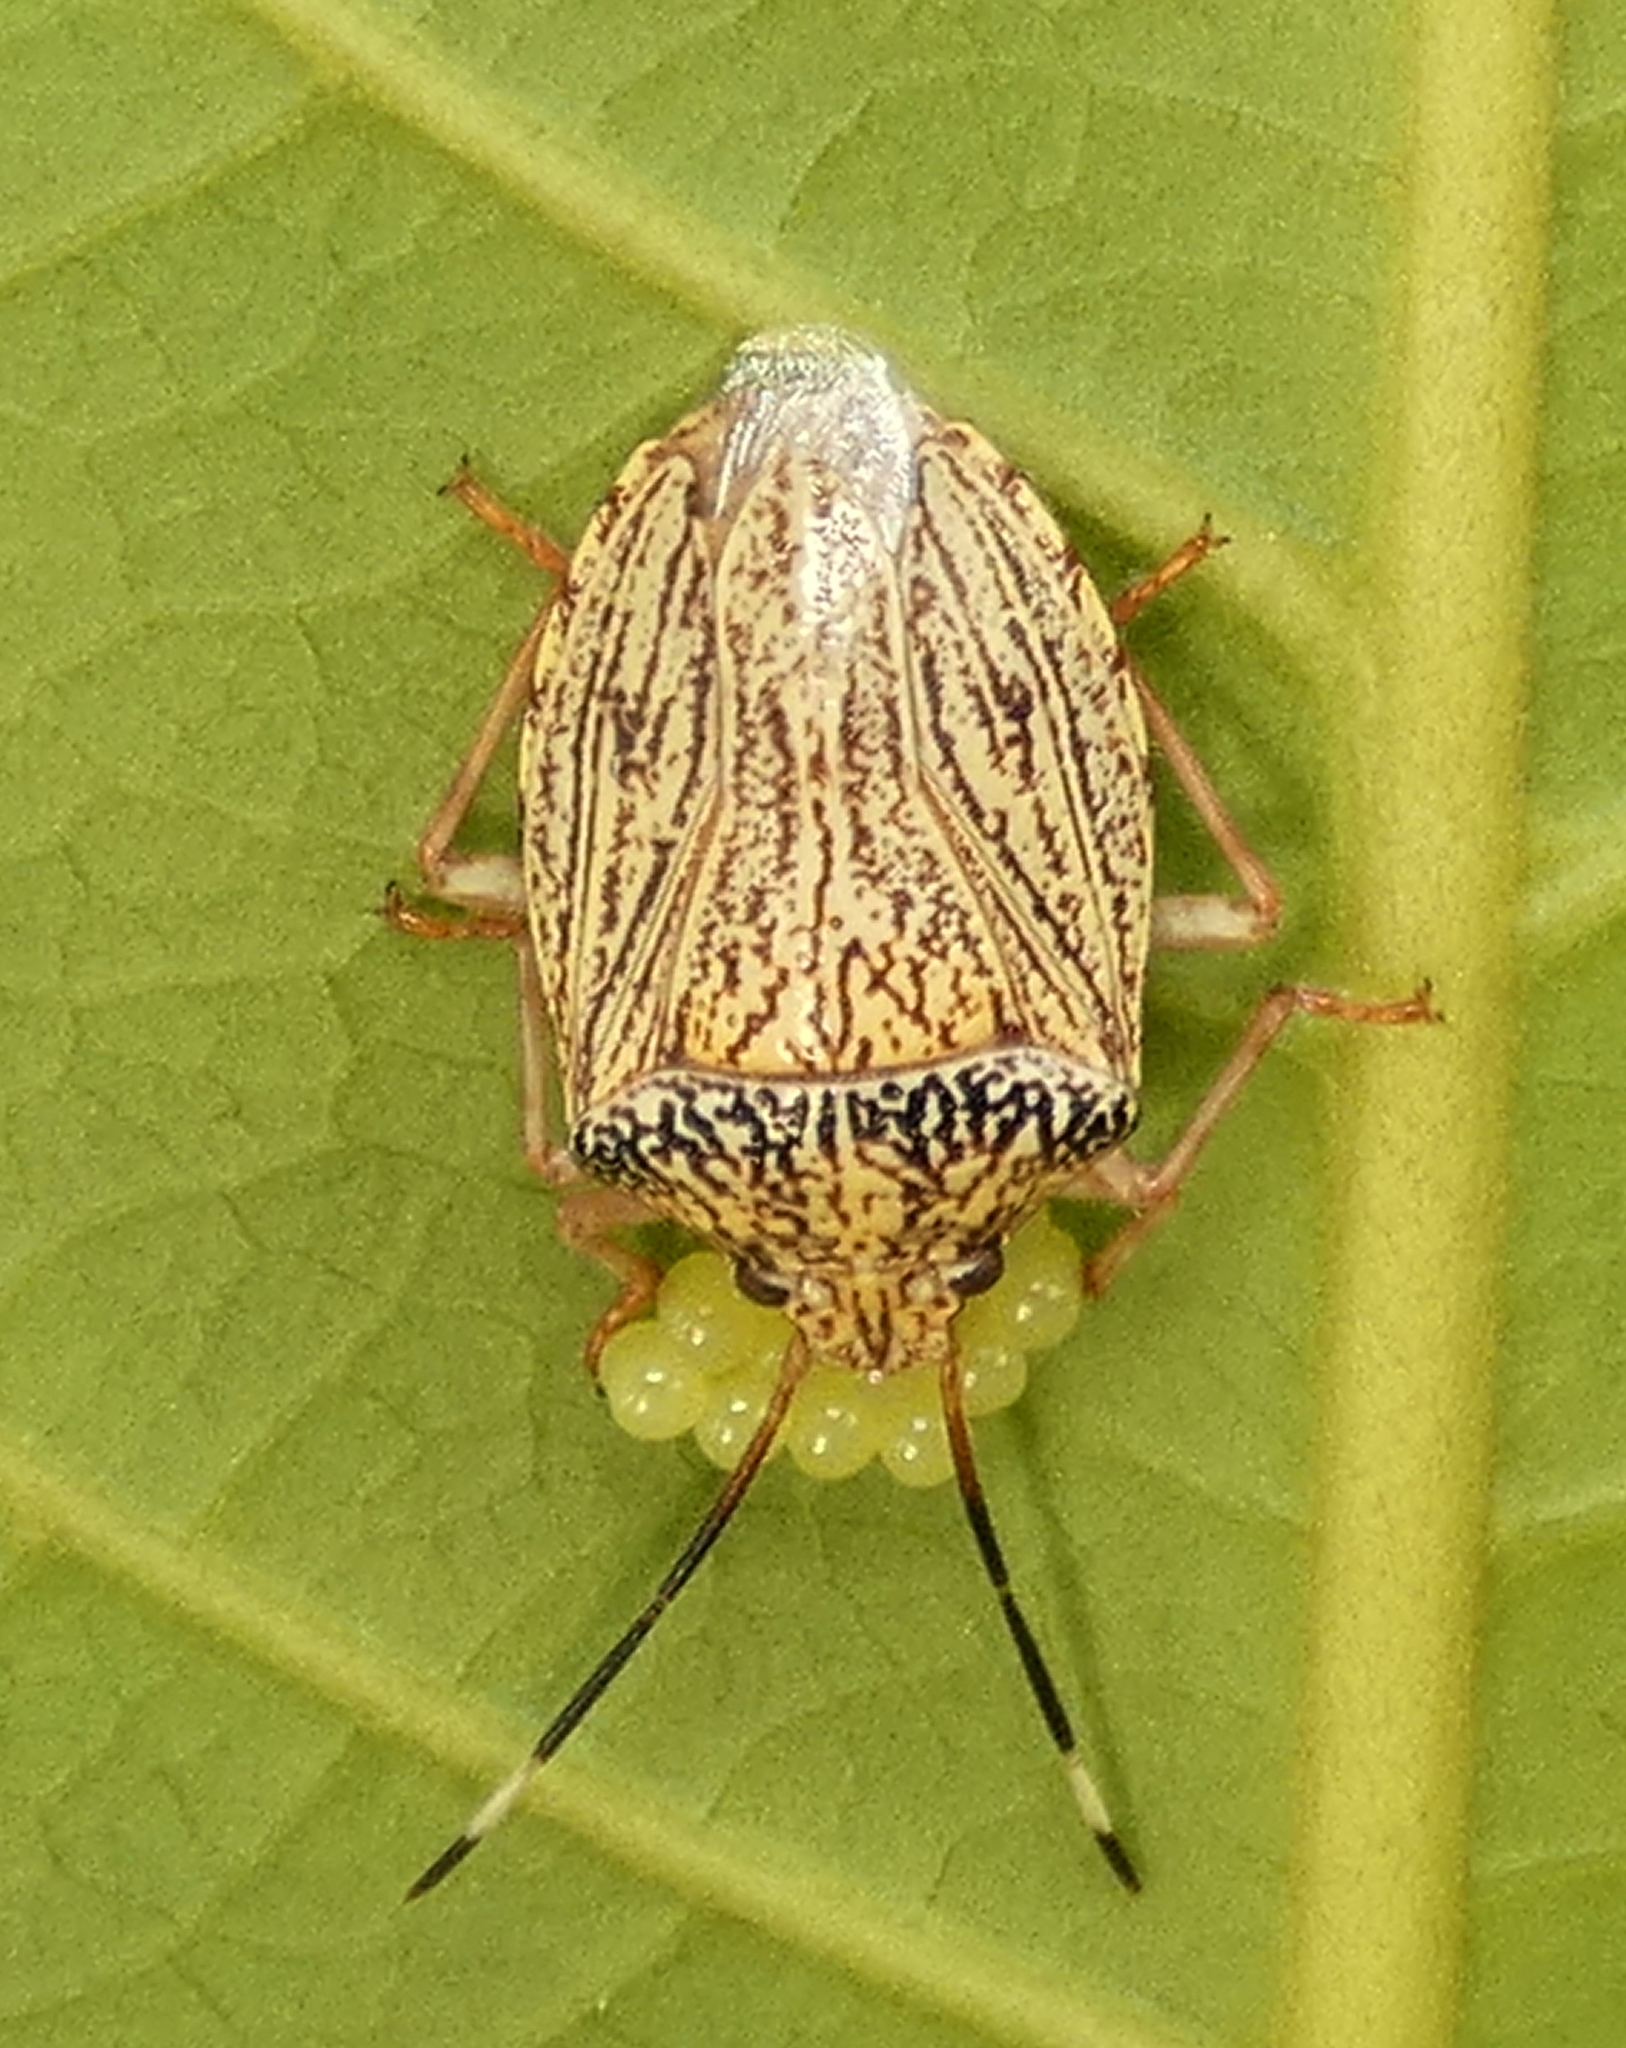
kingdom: Animalia
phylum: Arthropoda
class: Insecta
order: Hemiptera
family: Pentatomidae
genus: Antiteuchus
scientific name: Antiteuchus macraspis
